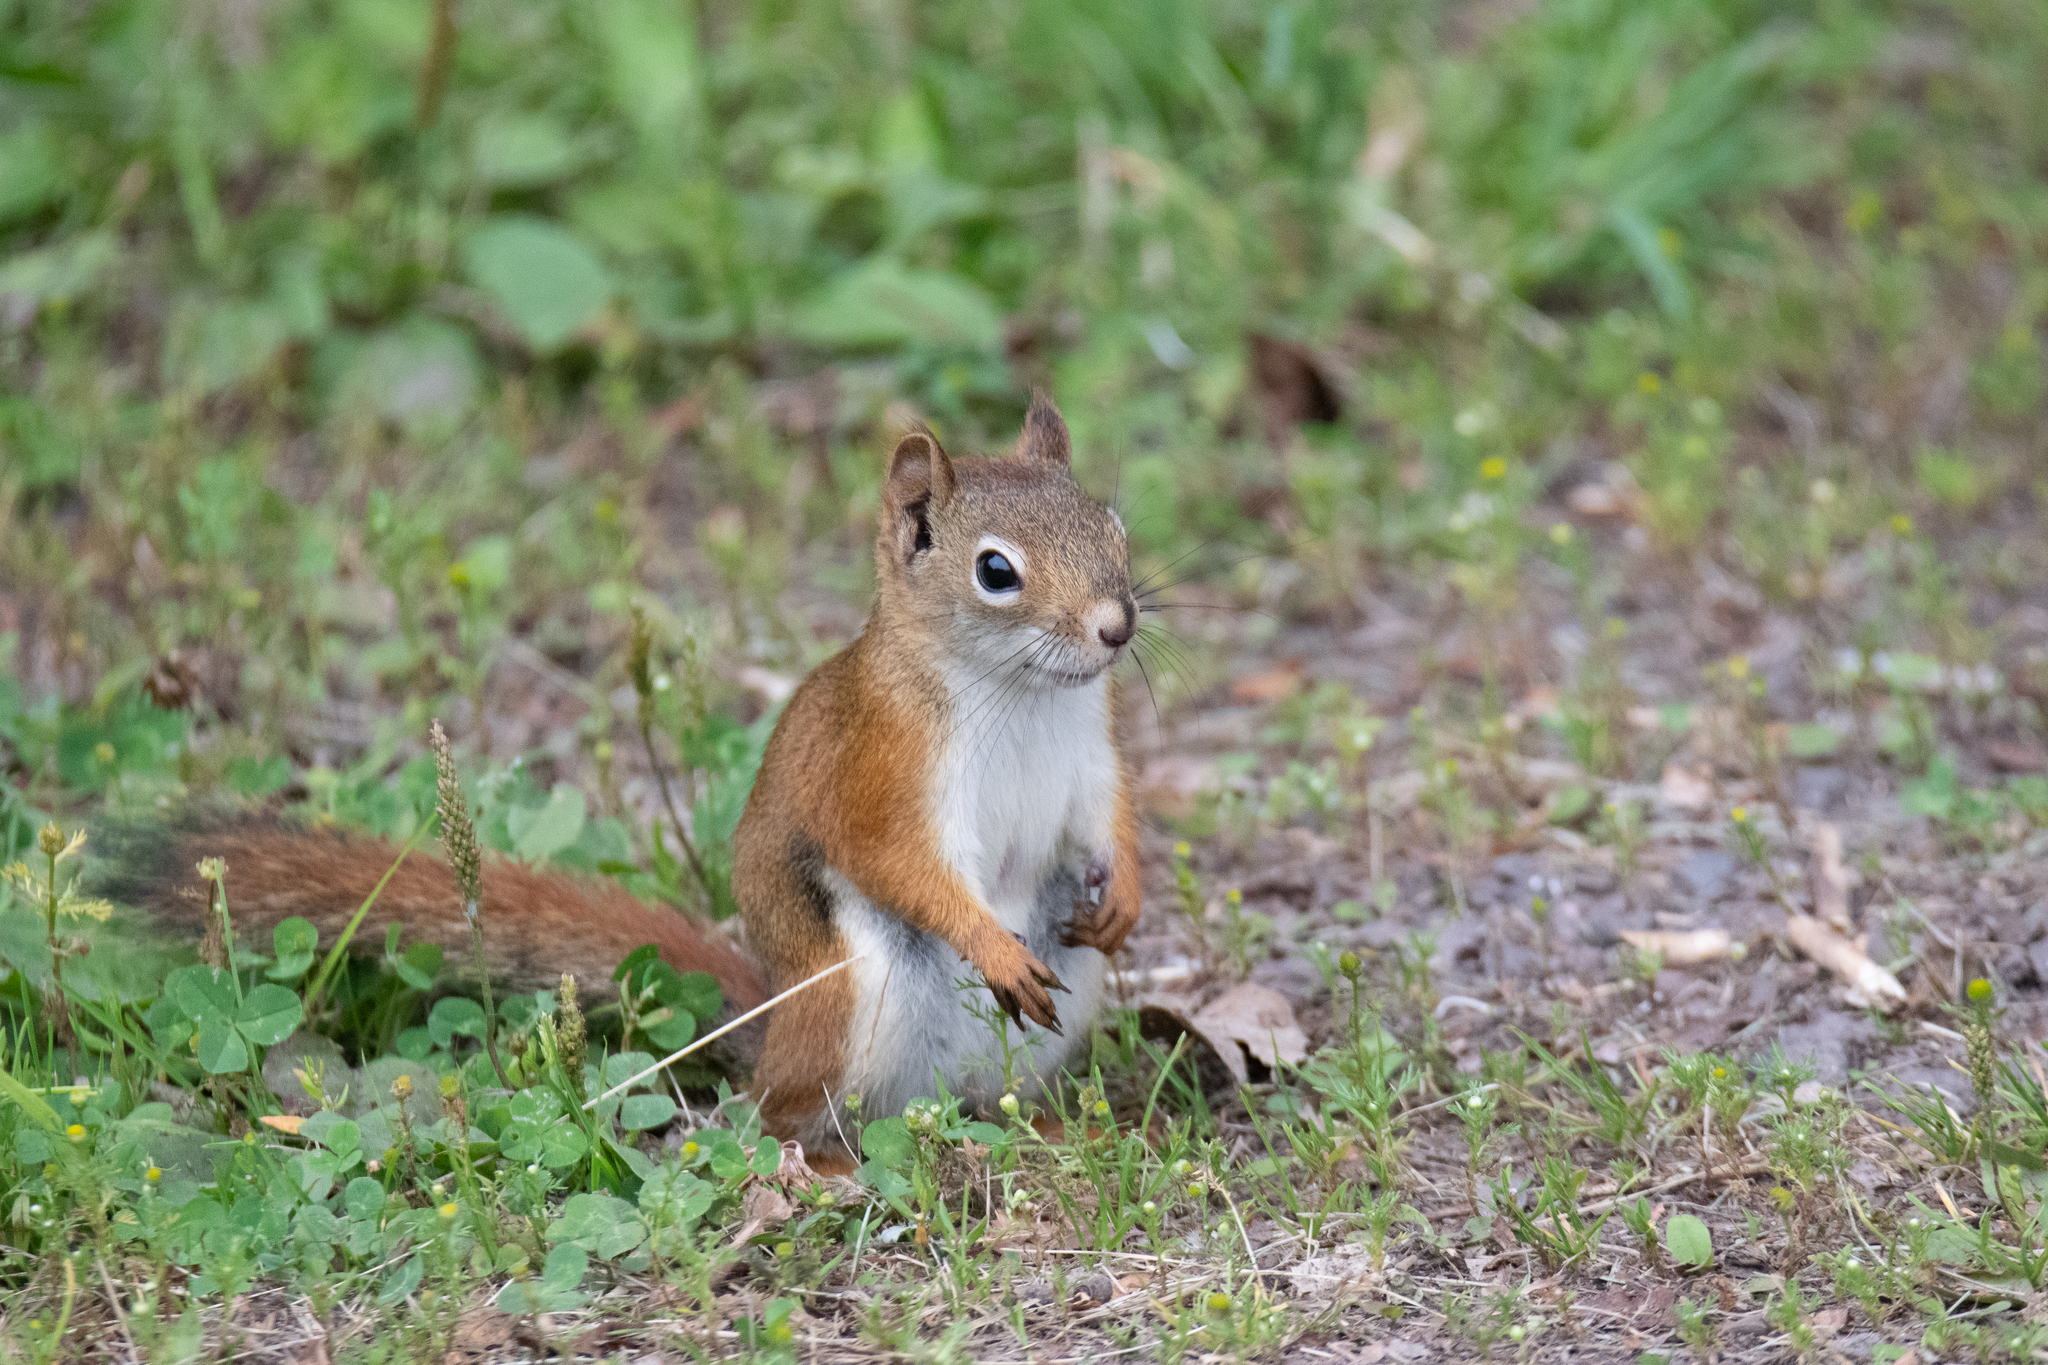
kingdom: Animalia
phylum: Chordata
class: Mammalia
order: Rodentia
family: Sciuridae
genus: Tamiasciurus
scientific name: Tamiasciurus hudsonicus
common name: Red squirrel
